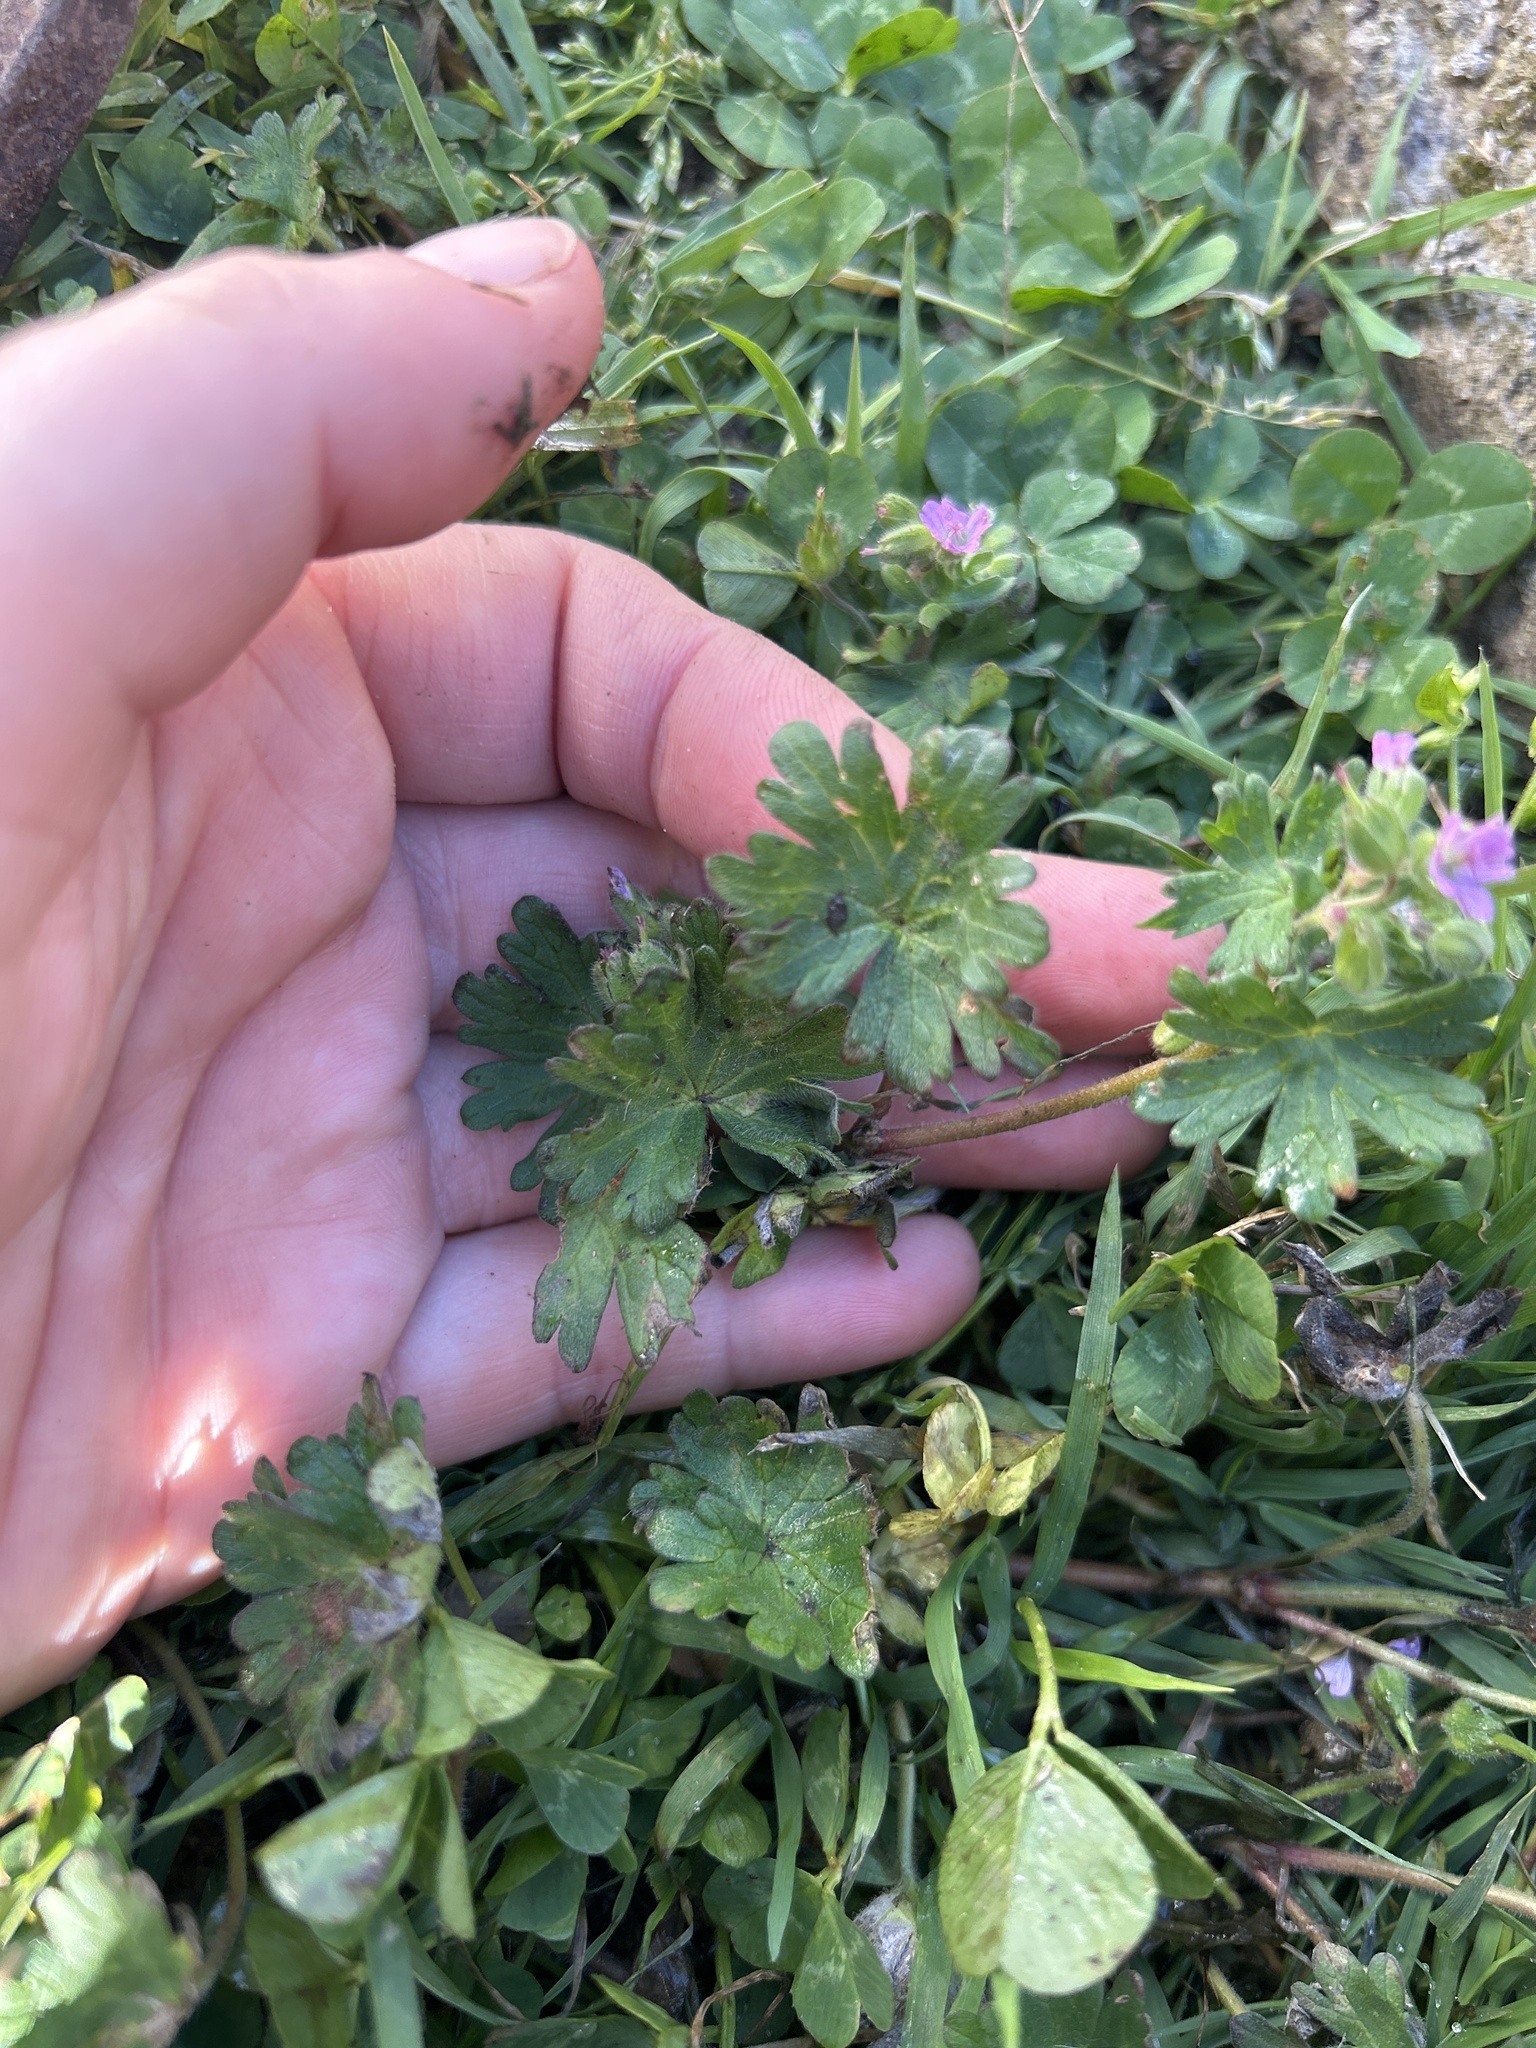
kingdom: Plantae
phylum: Tracheophyta
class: Magnoliopsida
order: Geraniales
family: Geraniaceae
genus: Geranium
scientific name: Geranium molle
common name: Dove's-foot crane's-bill
